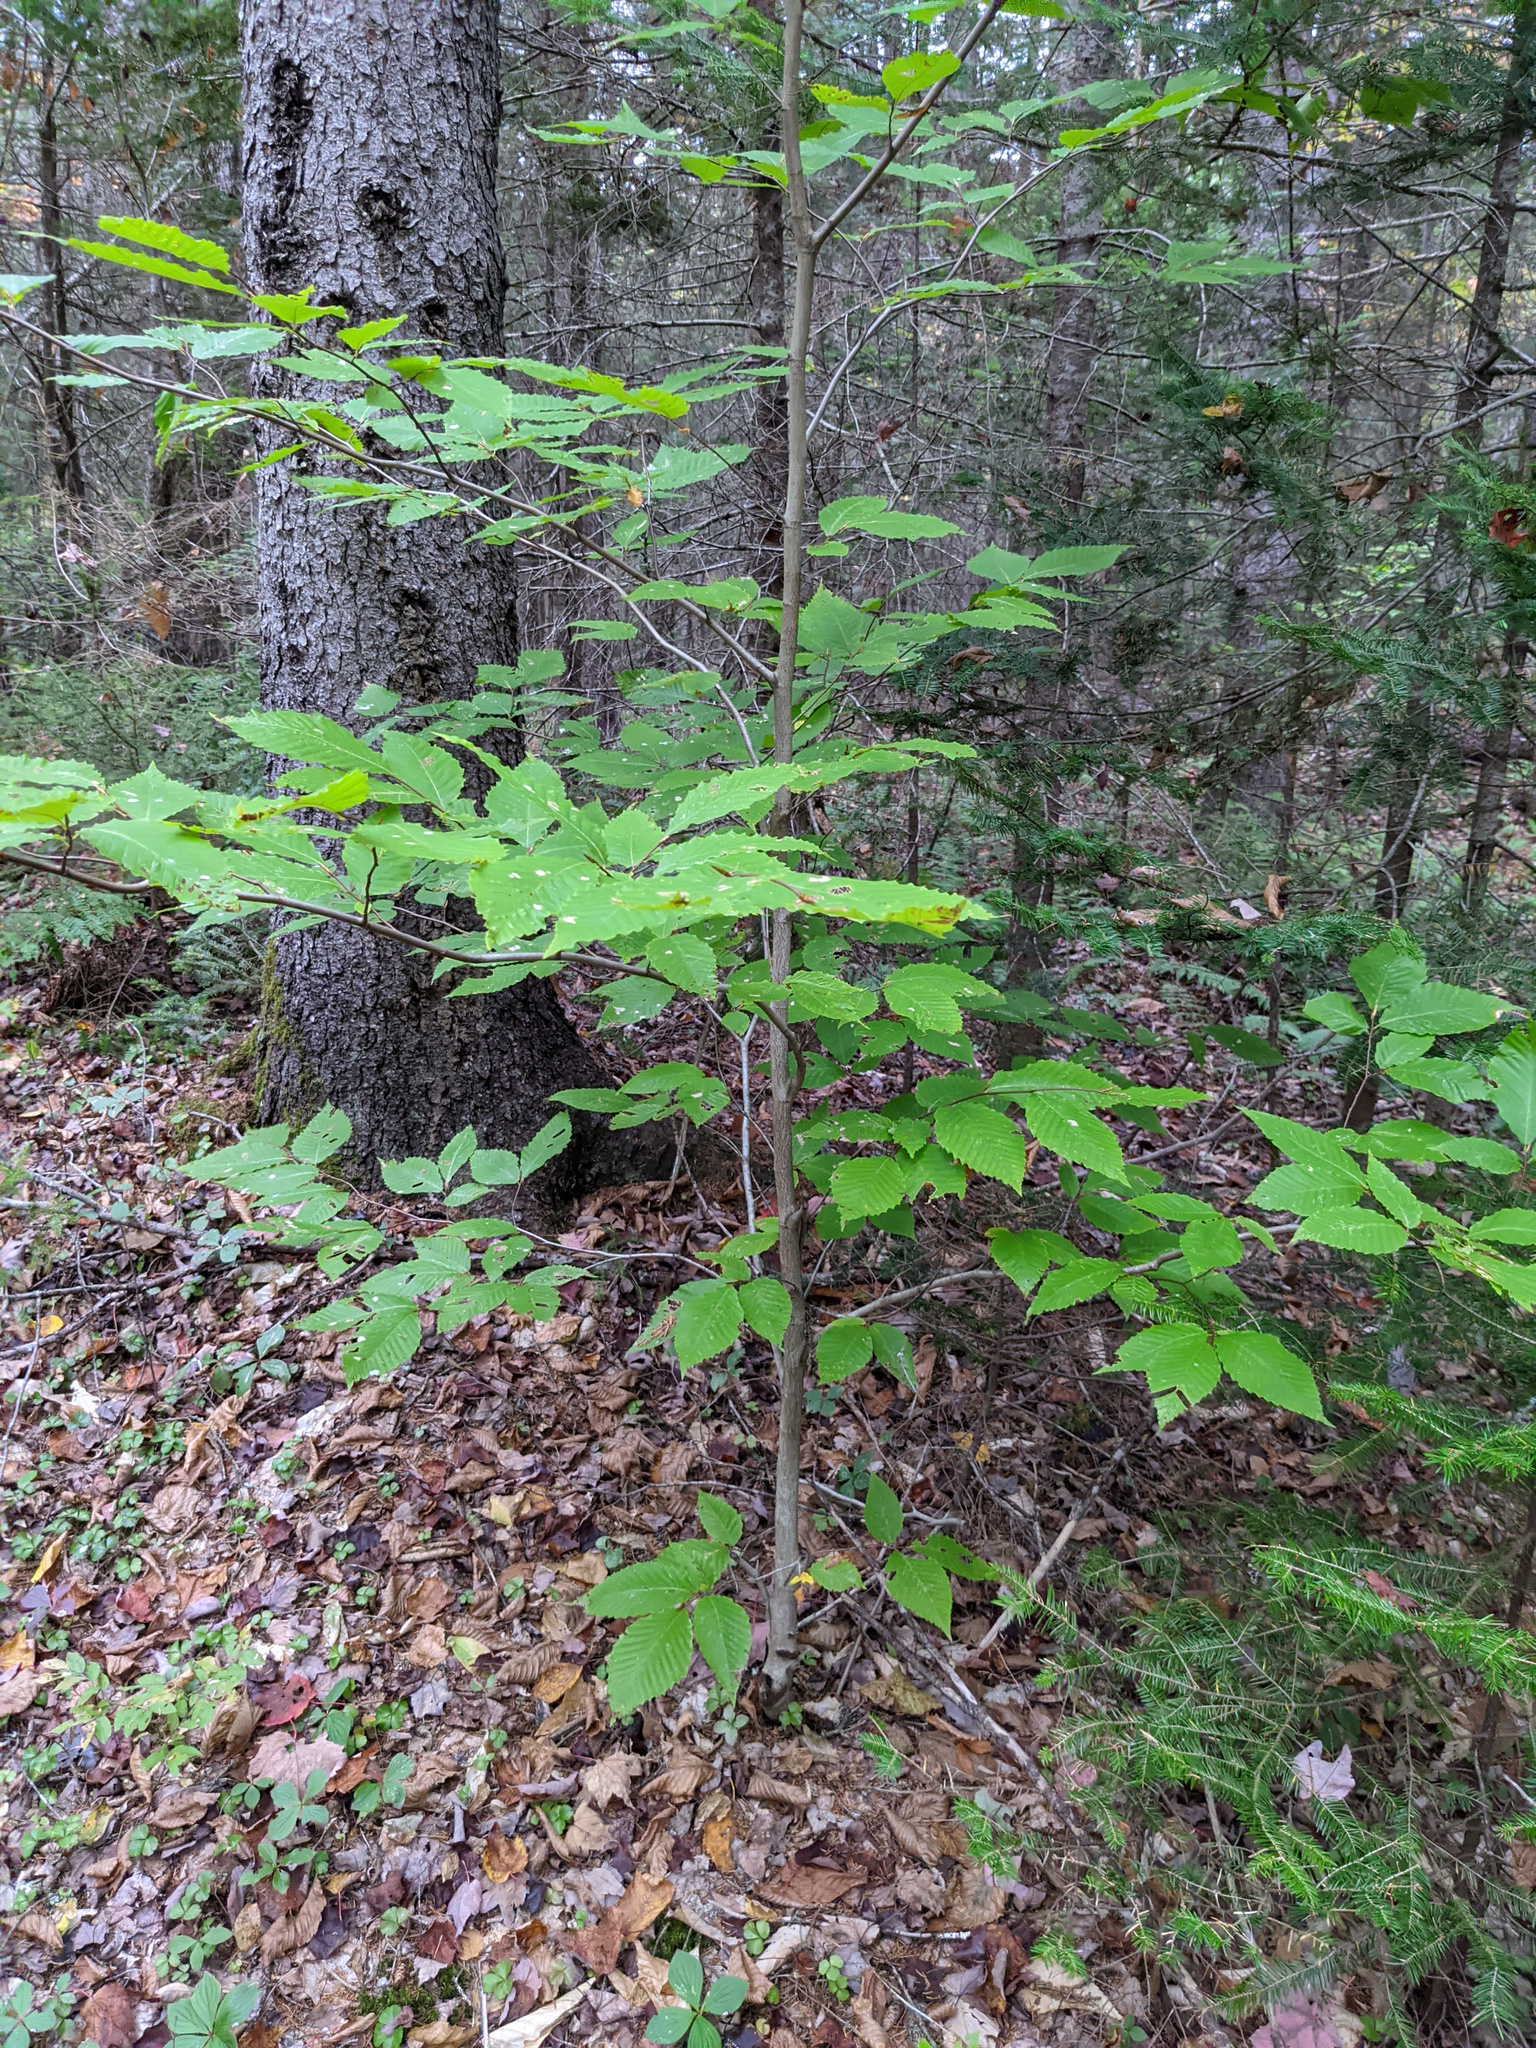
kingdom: Plantae
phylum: Tracheophyta
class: Magnoliopsida
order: Fagales
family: Fagaceae
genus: Fagus
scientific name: Fagus grandifolia
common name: American beech
